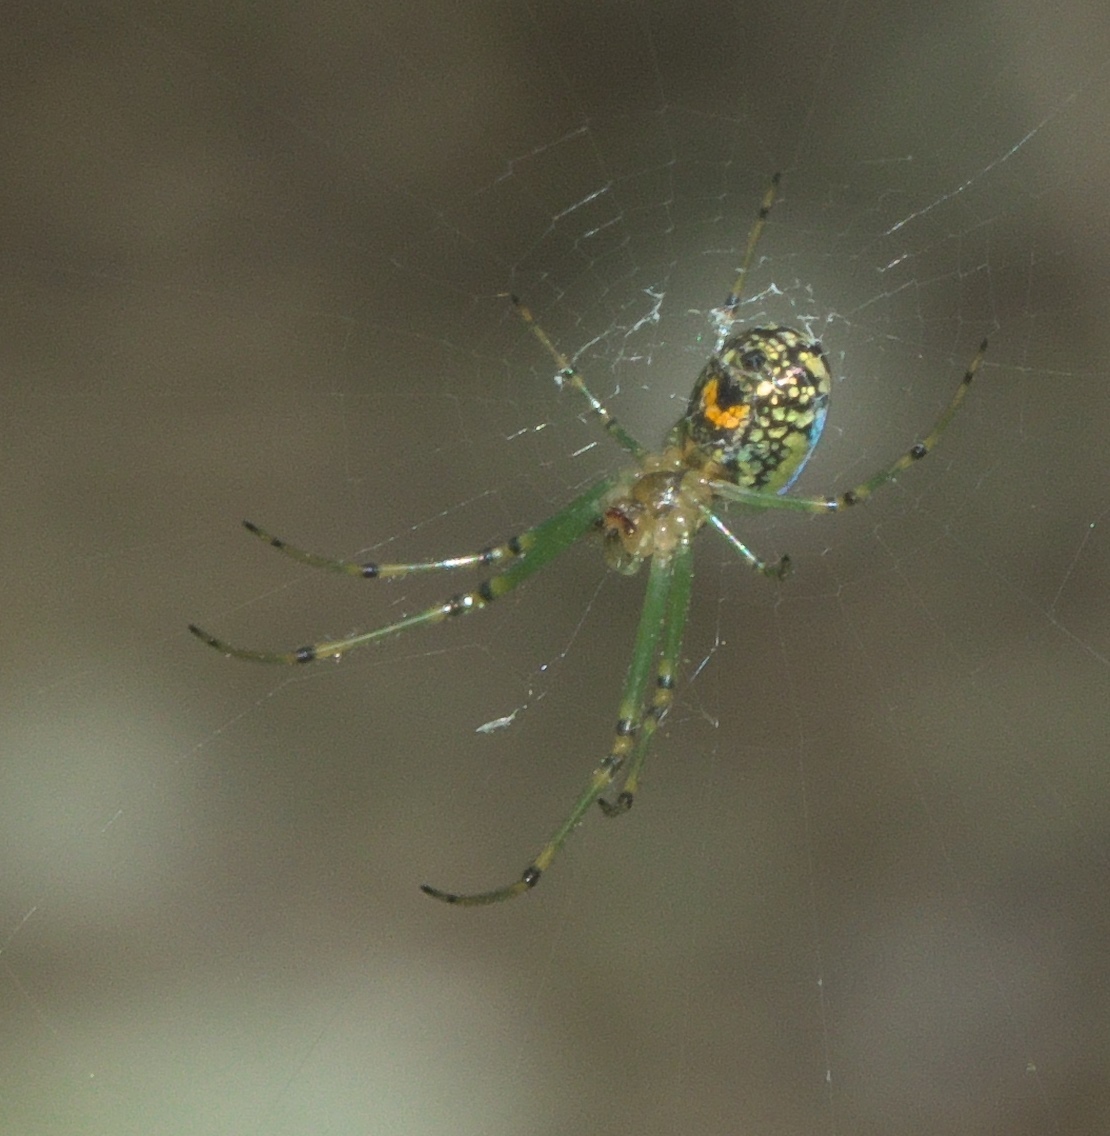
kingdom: Animalia
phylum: Arthropoda
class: Arachnida
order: Araneae
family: Tetragnathidae
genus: Leucauge
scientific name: Leucauge venusta
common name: Longjawed orb weavers
